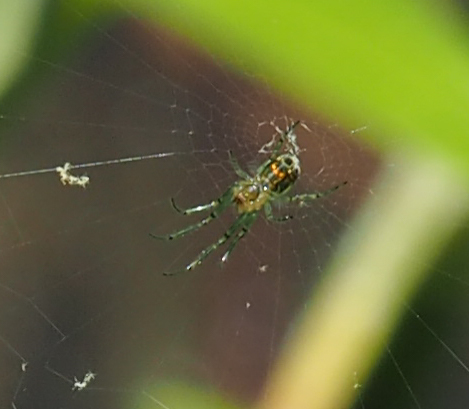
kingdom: Animalia
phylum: Arthropoda
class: Arachnida
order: Araneae
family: Tetragnathidae
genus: Leucauge
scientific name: Leucauge venusta
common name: Longjawed orb weavers
